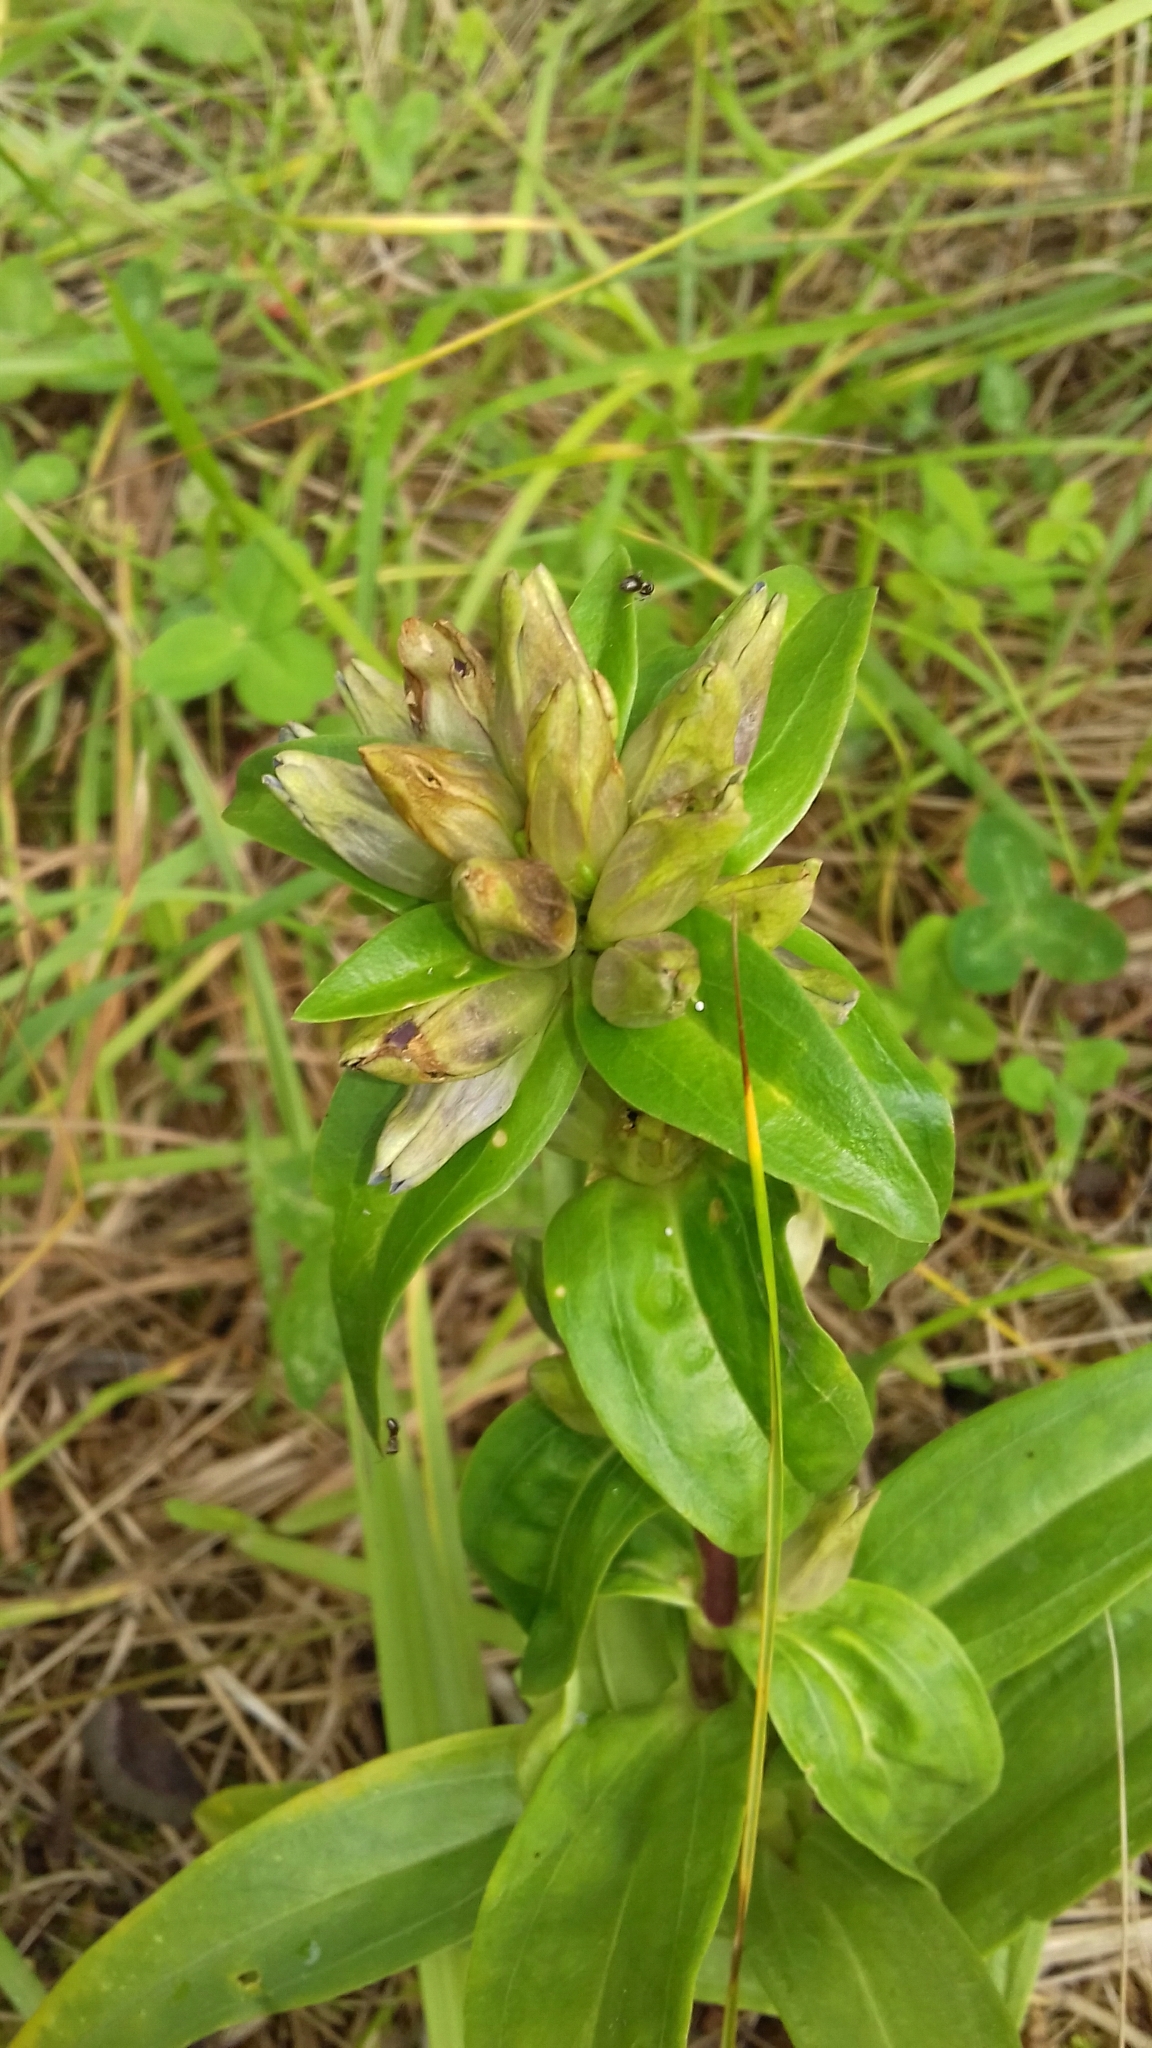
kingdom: Plantae
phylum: Tracheophyta
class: Magnoliopsida
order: Gentianales
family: Gentianaceae
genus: Gentiana
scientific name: Gentiana cruciata
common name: Cross gentian
